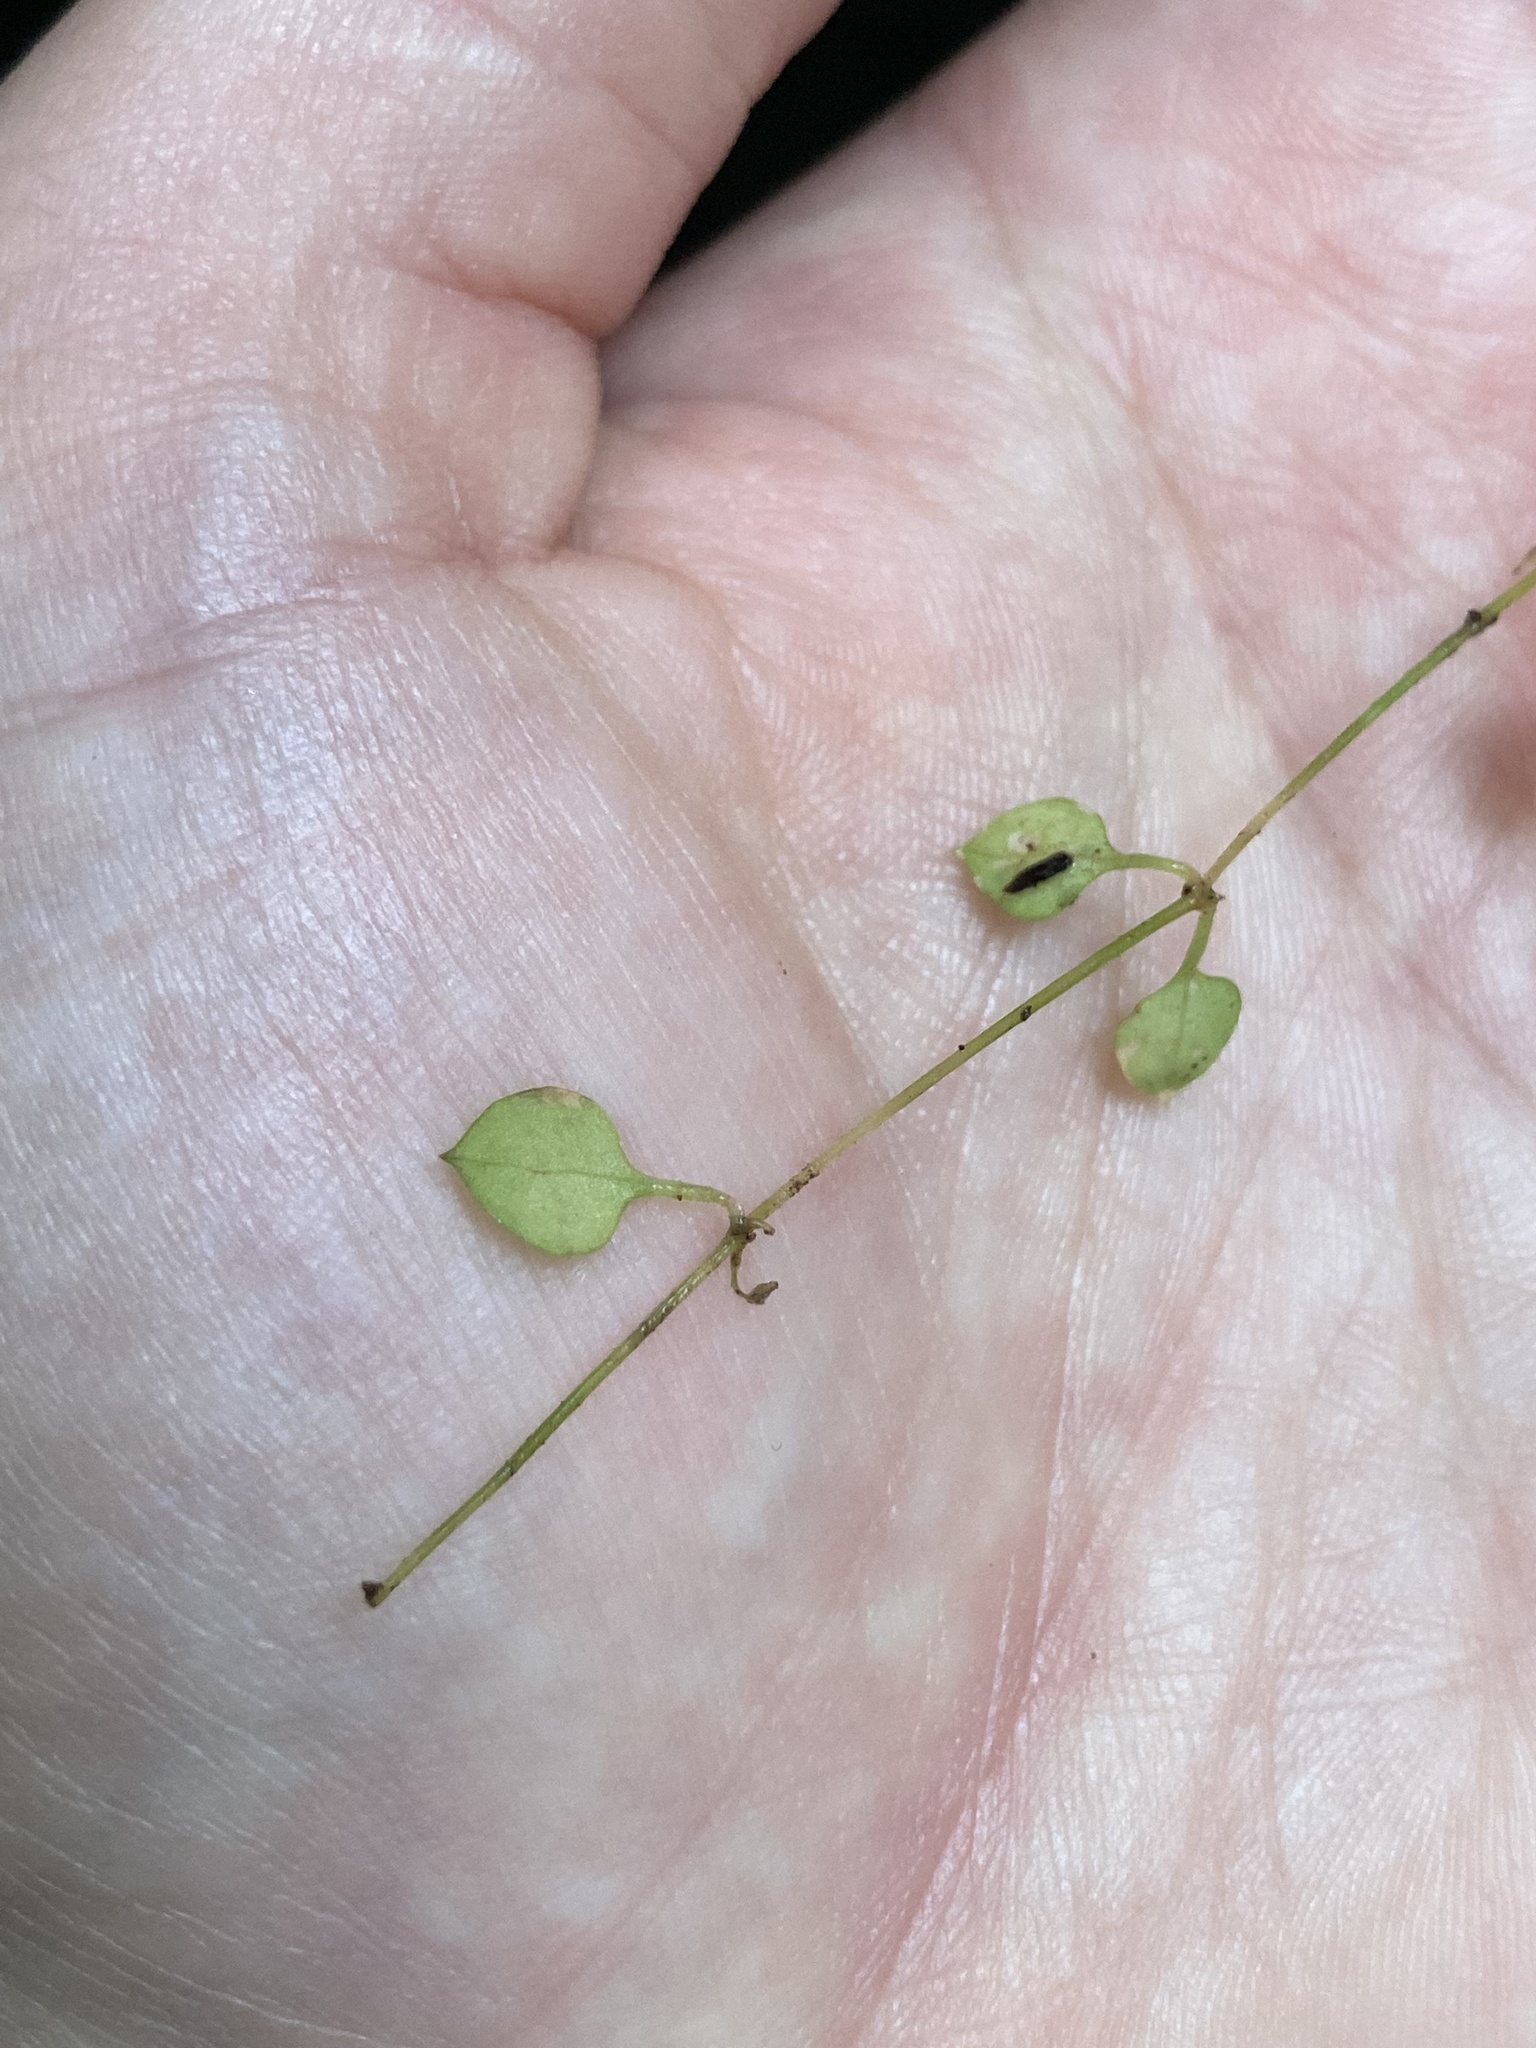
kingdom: Plantae
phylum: Tracheophyta
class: Magnoliopsida
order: Caryophyllales
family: Caryophyllaceae
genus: Stellaria
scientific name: Stellaria parviflora
